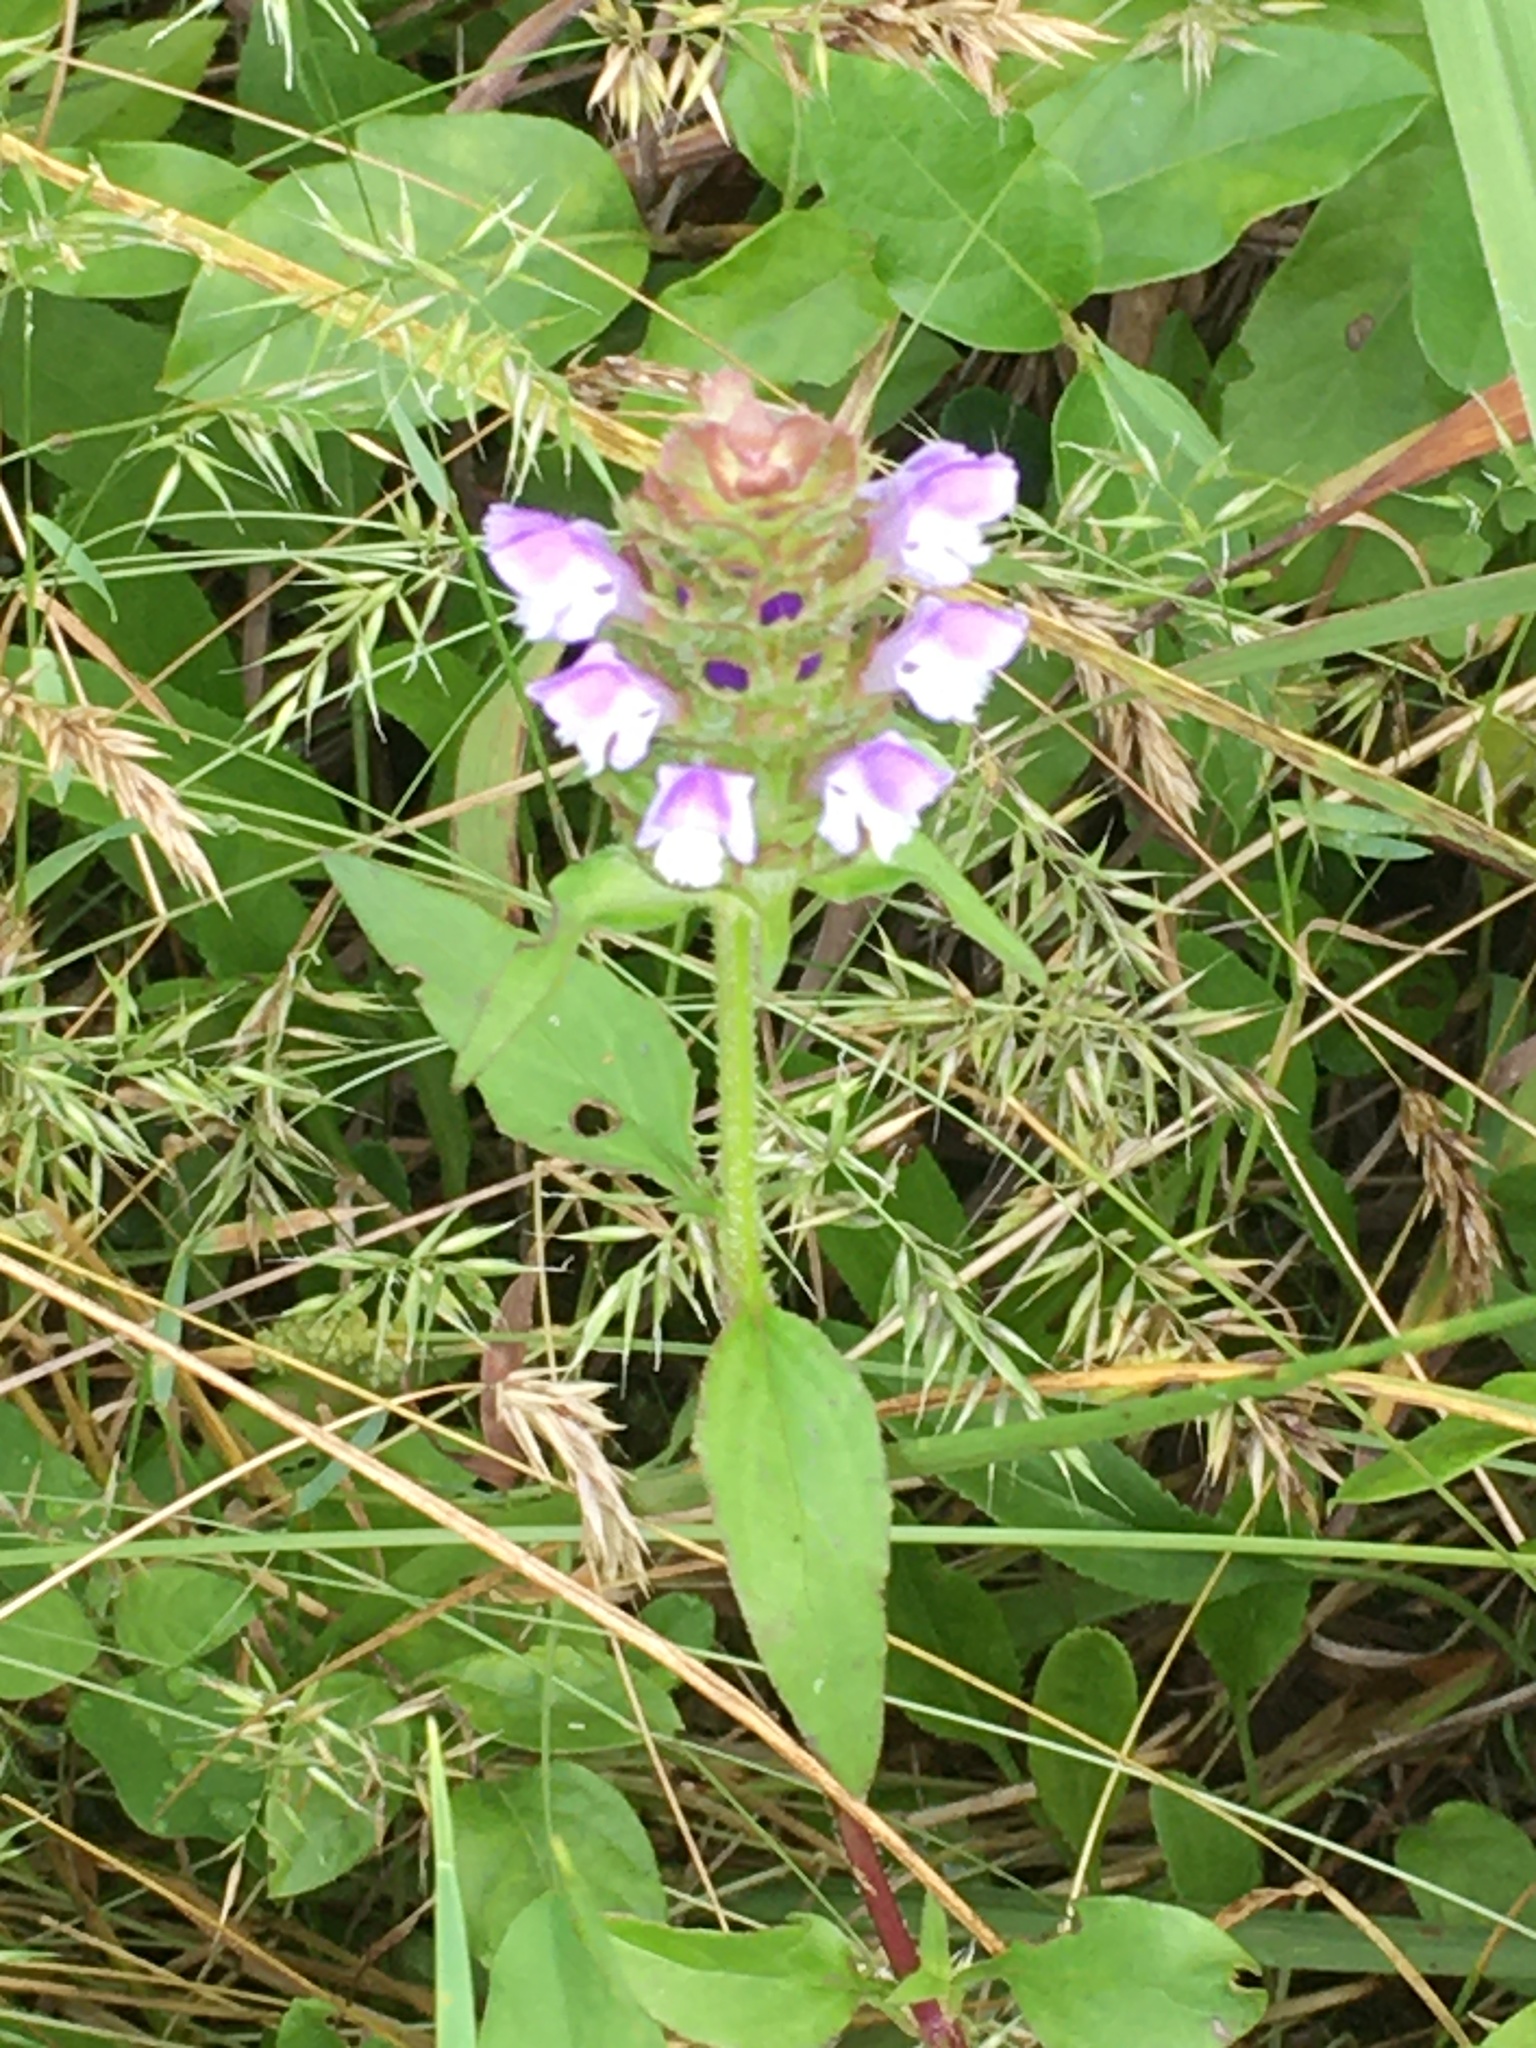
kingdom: Plantae
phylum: Tracheophyta
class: Magnoliopsida
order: Lamiales
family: Lamiaceae
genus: Prunella
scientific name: Prunella vulgaris
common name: Heal-all
